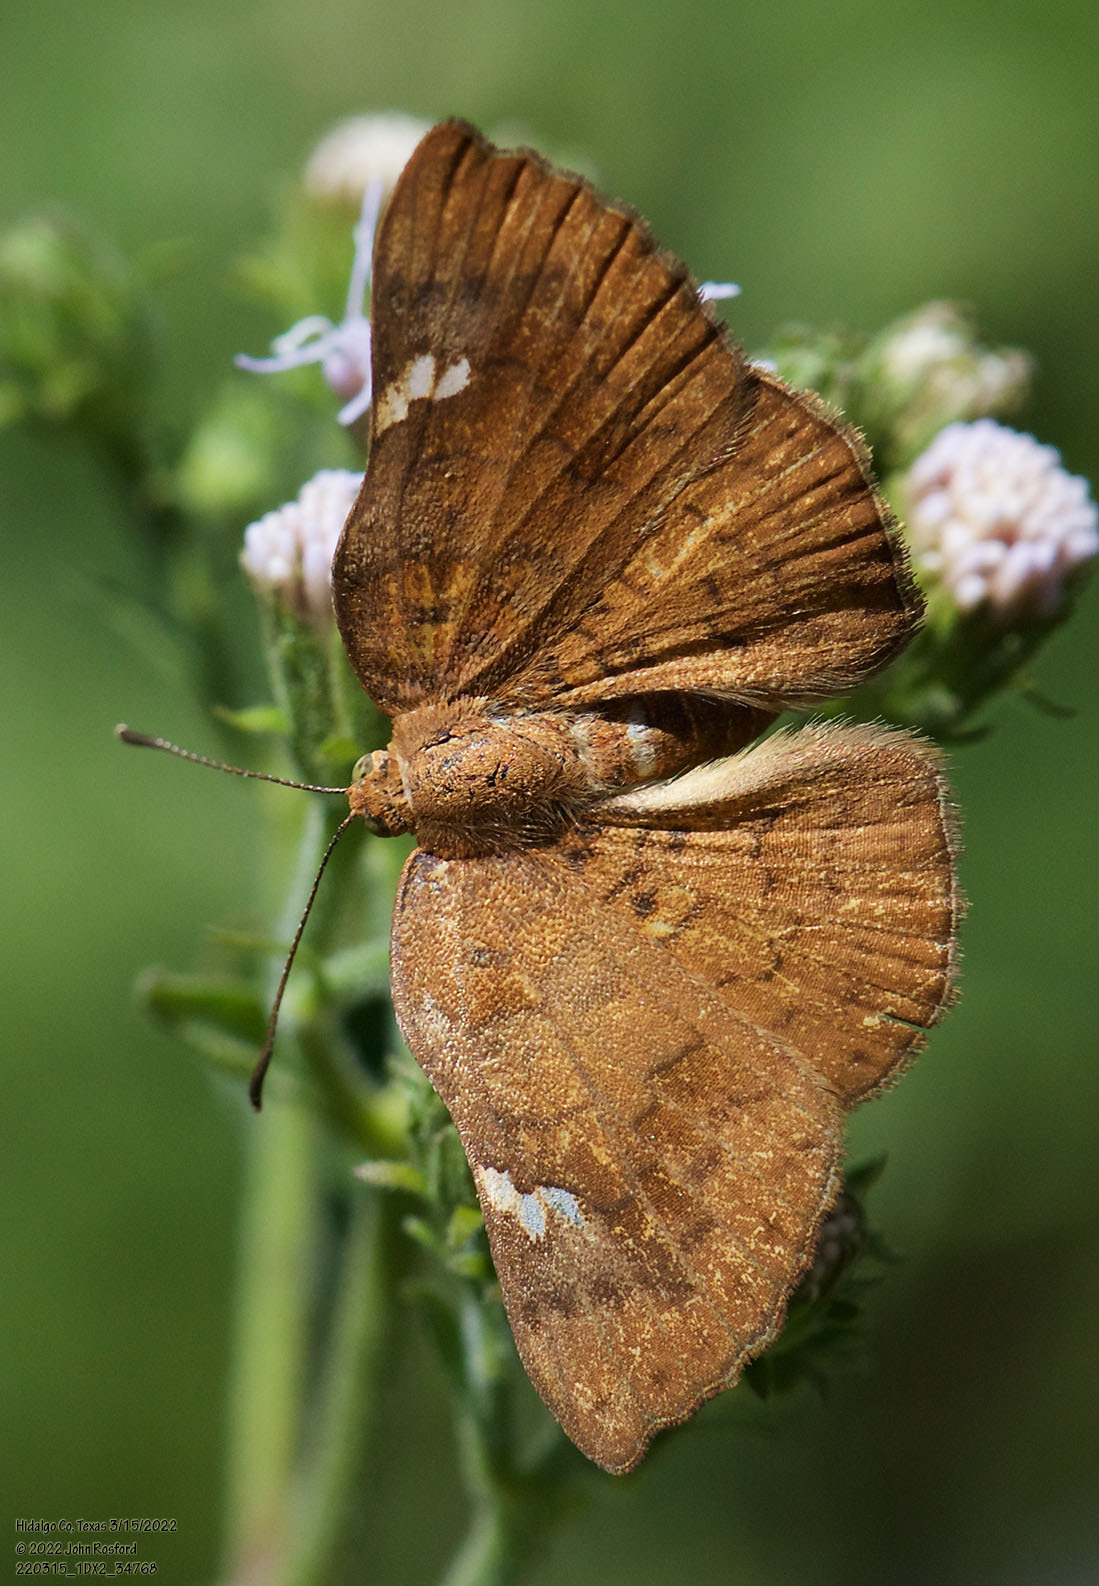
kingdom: Animalia
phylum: Arthropoda
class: Insecta
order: Lepidoptera
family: Riodinidae
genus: Curvie
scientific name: Curvie emesia
